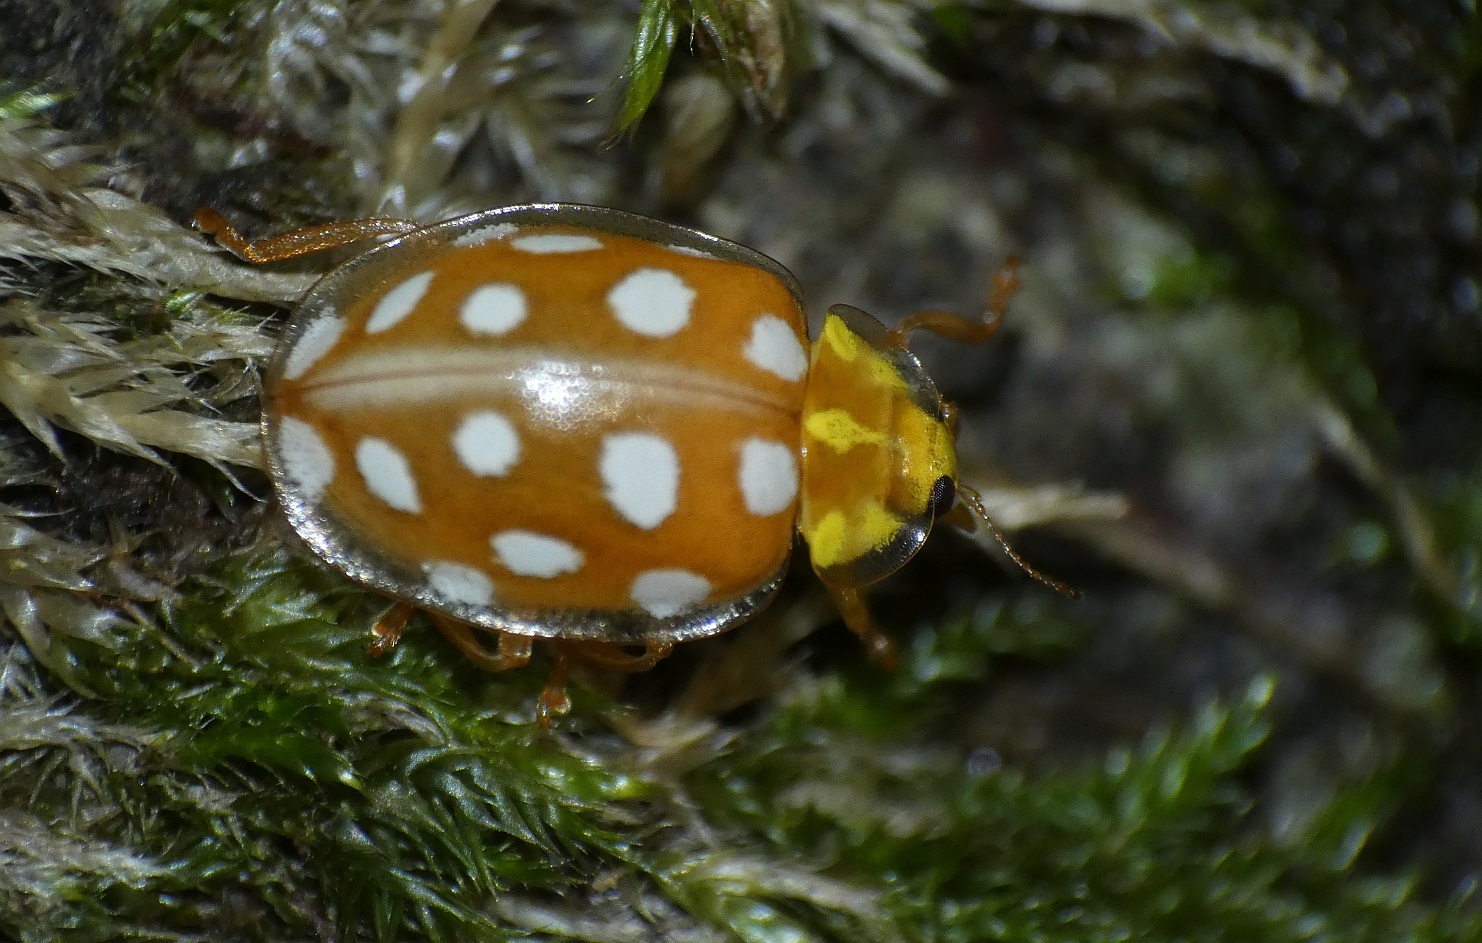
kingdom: Animalia
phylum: Arthropoda
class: Insecta
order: Coleoptera
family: Coccinellidae
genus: Halyzia
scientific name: Halyzia sedecimguttata
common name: Orange ladybird
